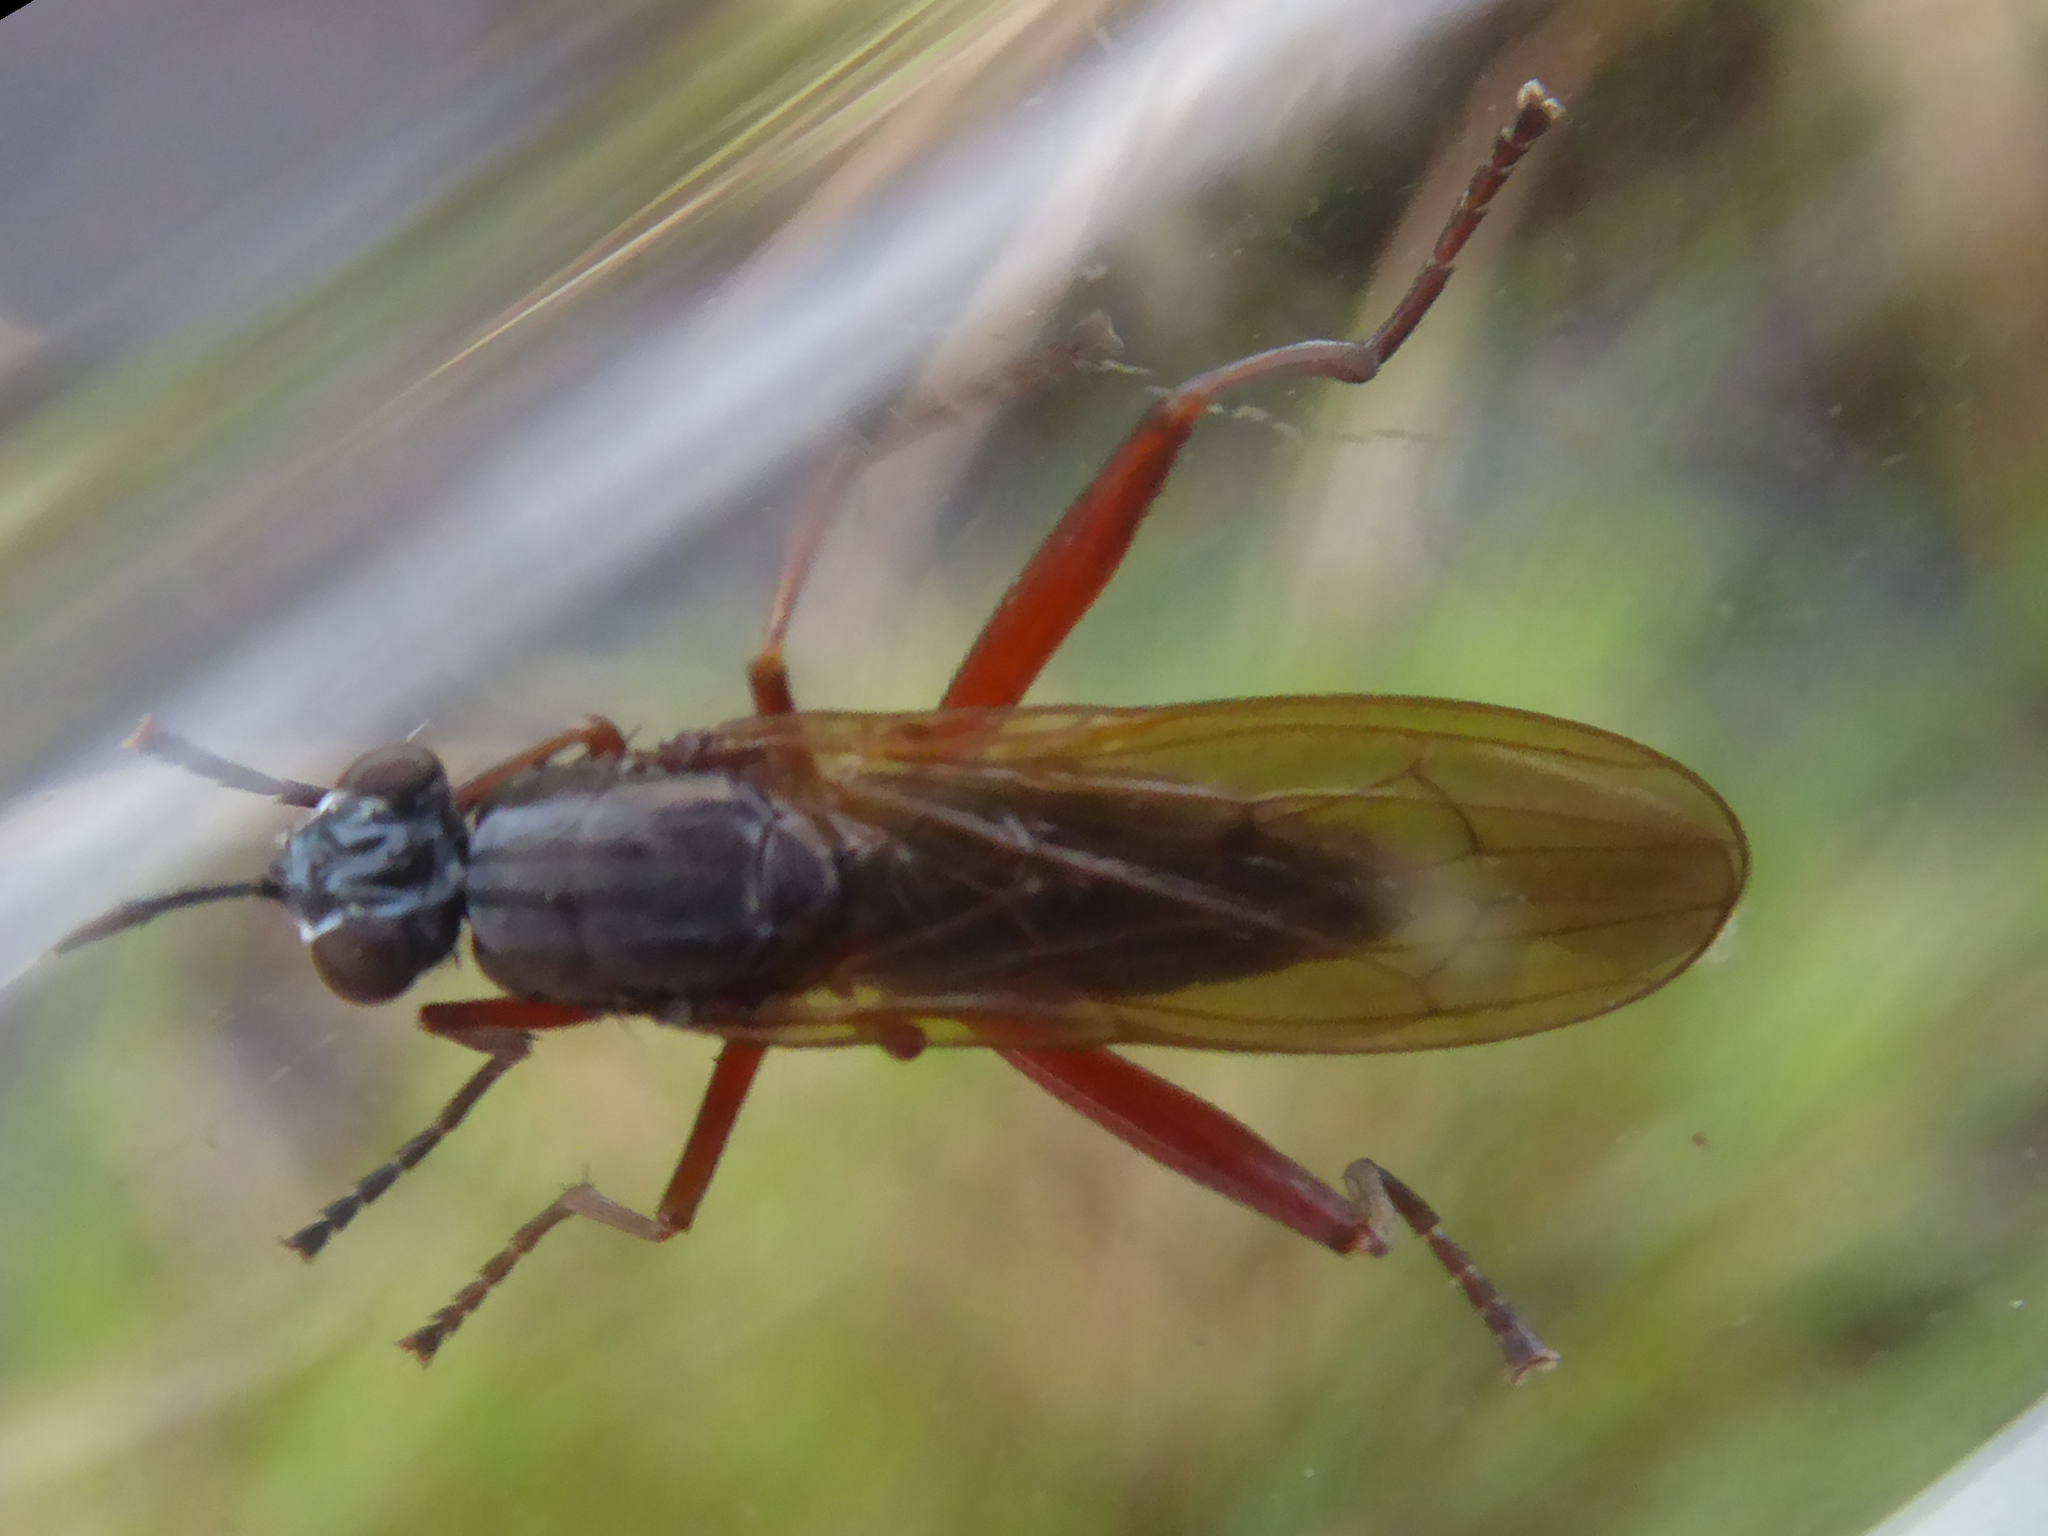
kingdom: Animalia
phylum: Arthropoda
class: Insecta
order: Diptera
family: Sciomyzidae
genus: Sepedon
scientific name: Sepedon sphegea
